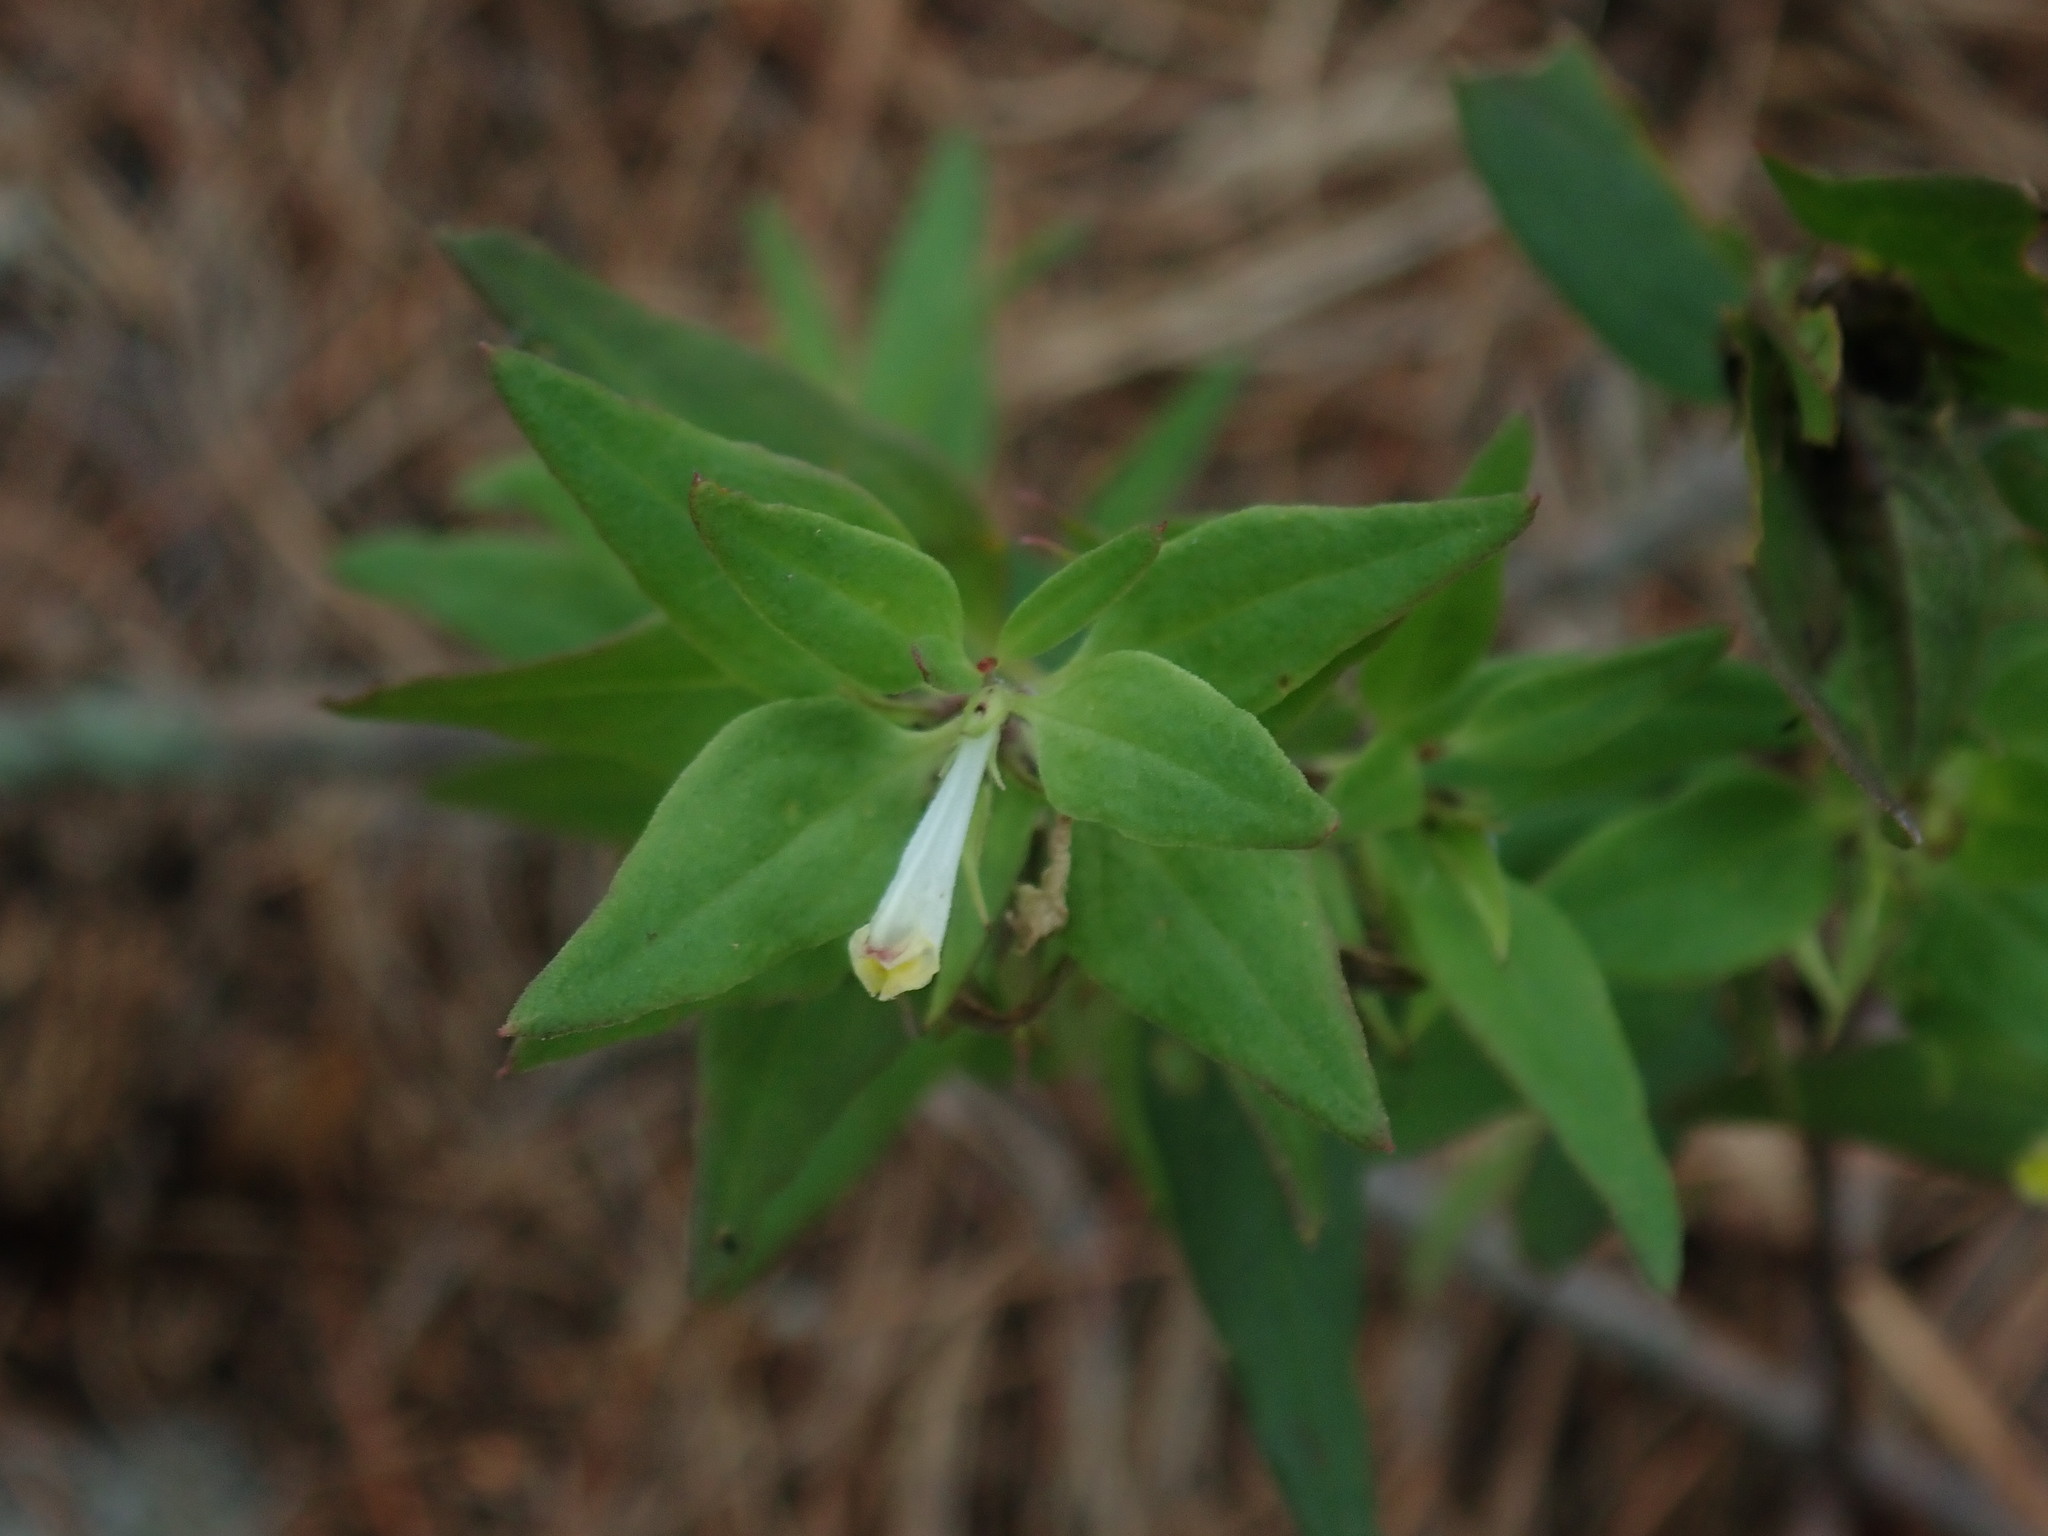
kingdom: Plantae
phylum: Tracheophyta
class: Magnoliopsida
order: Lamiales
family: Orobanchaceae
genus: Melampyrum
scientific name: Melampyrum lineare
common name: American cow-wheat
